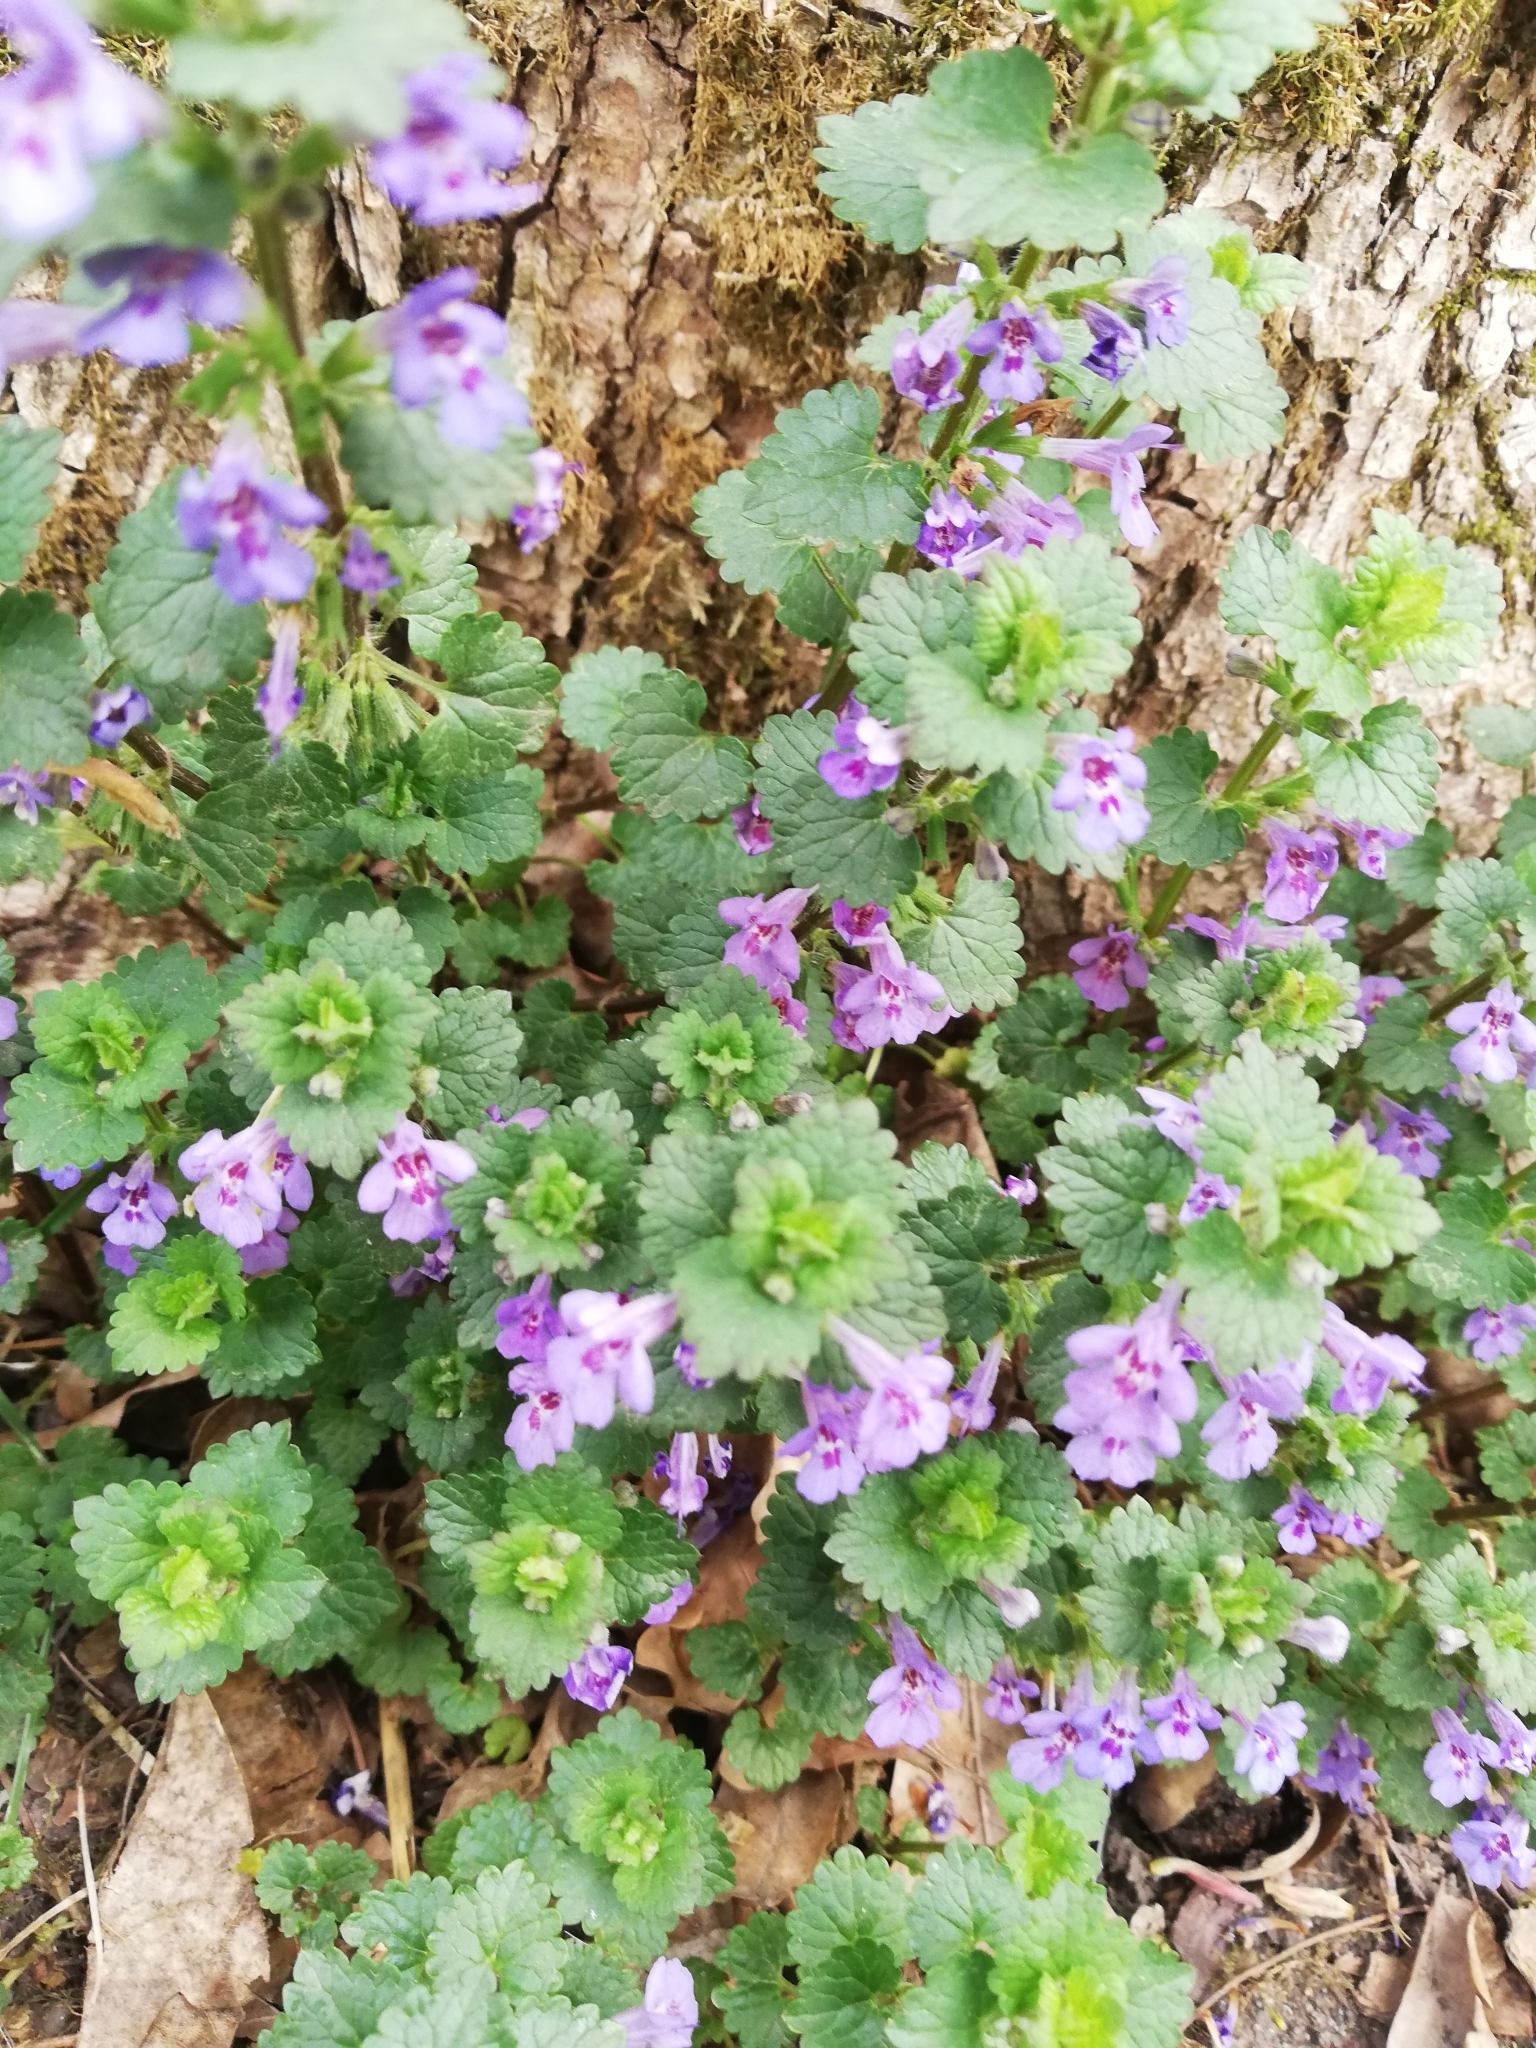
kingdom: Plantae
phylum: Tracheophyta
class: Magnoliopsida
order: Lamiales
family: Lamiaceae
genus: Glechoma
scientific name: Glechoma hederacea
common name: Ground ivy
